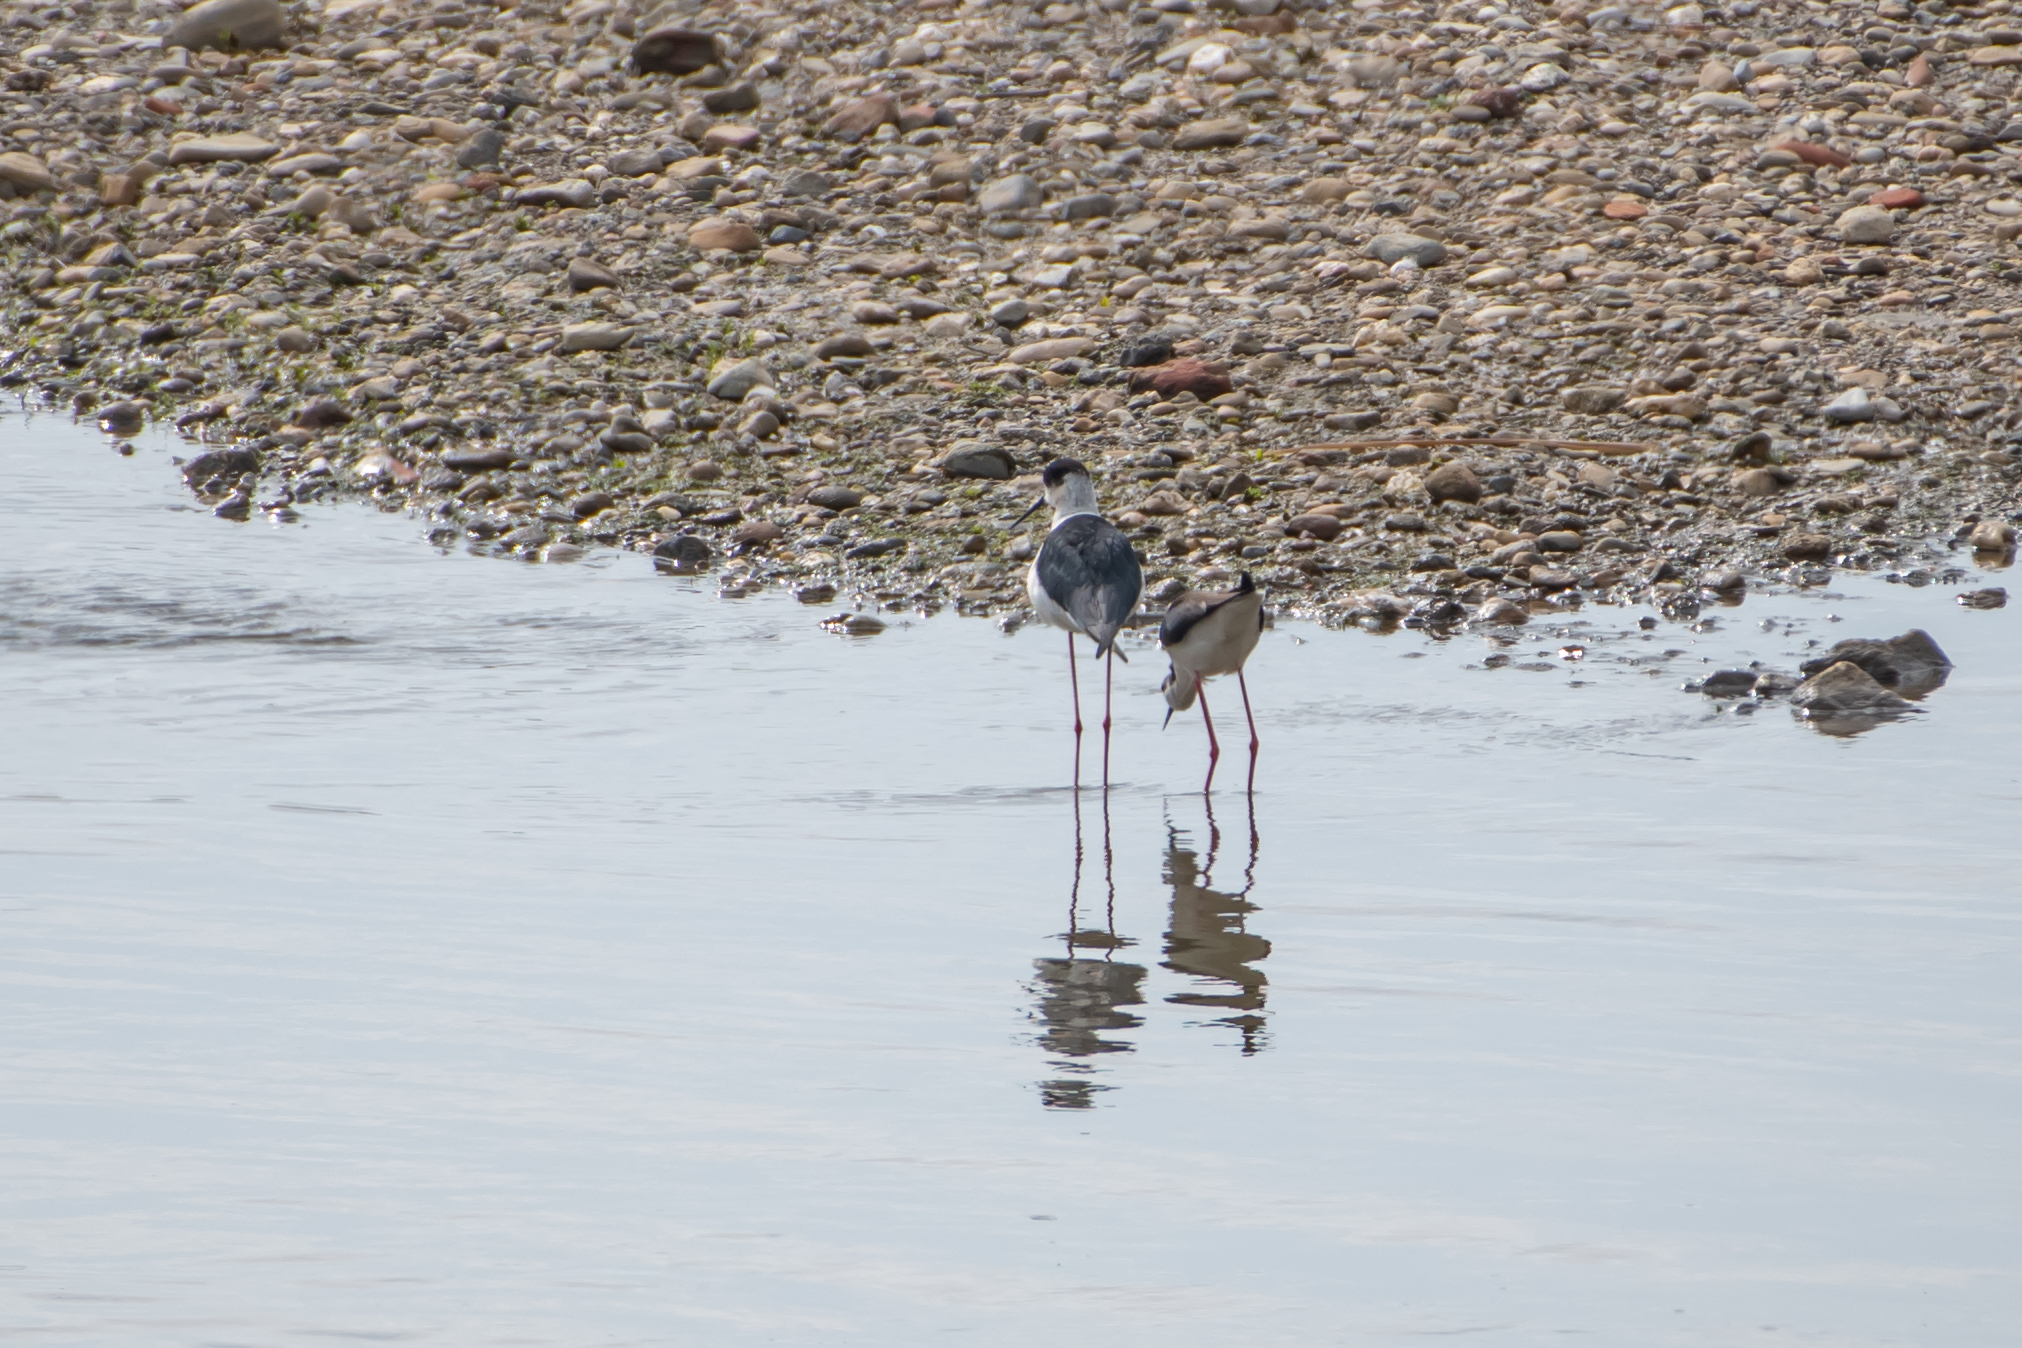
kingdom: Animalia
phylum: Chordata
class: Aves
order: Charadriiformes
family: Recurvirostridae
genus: Himantopus
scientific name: Himantopus himantopus
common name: Black-winged stilt
